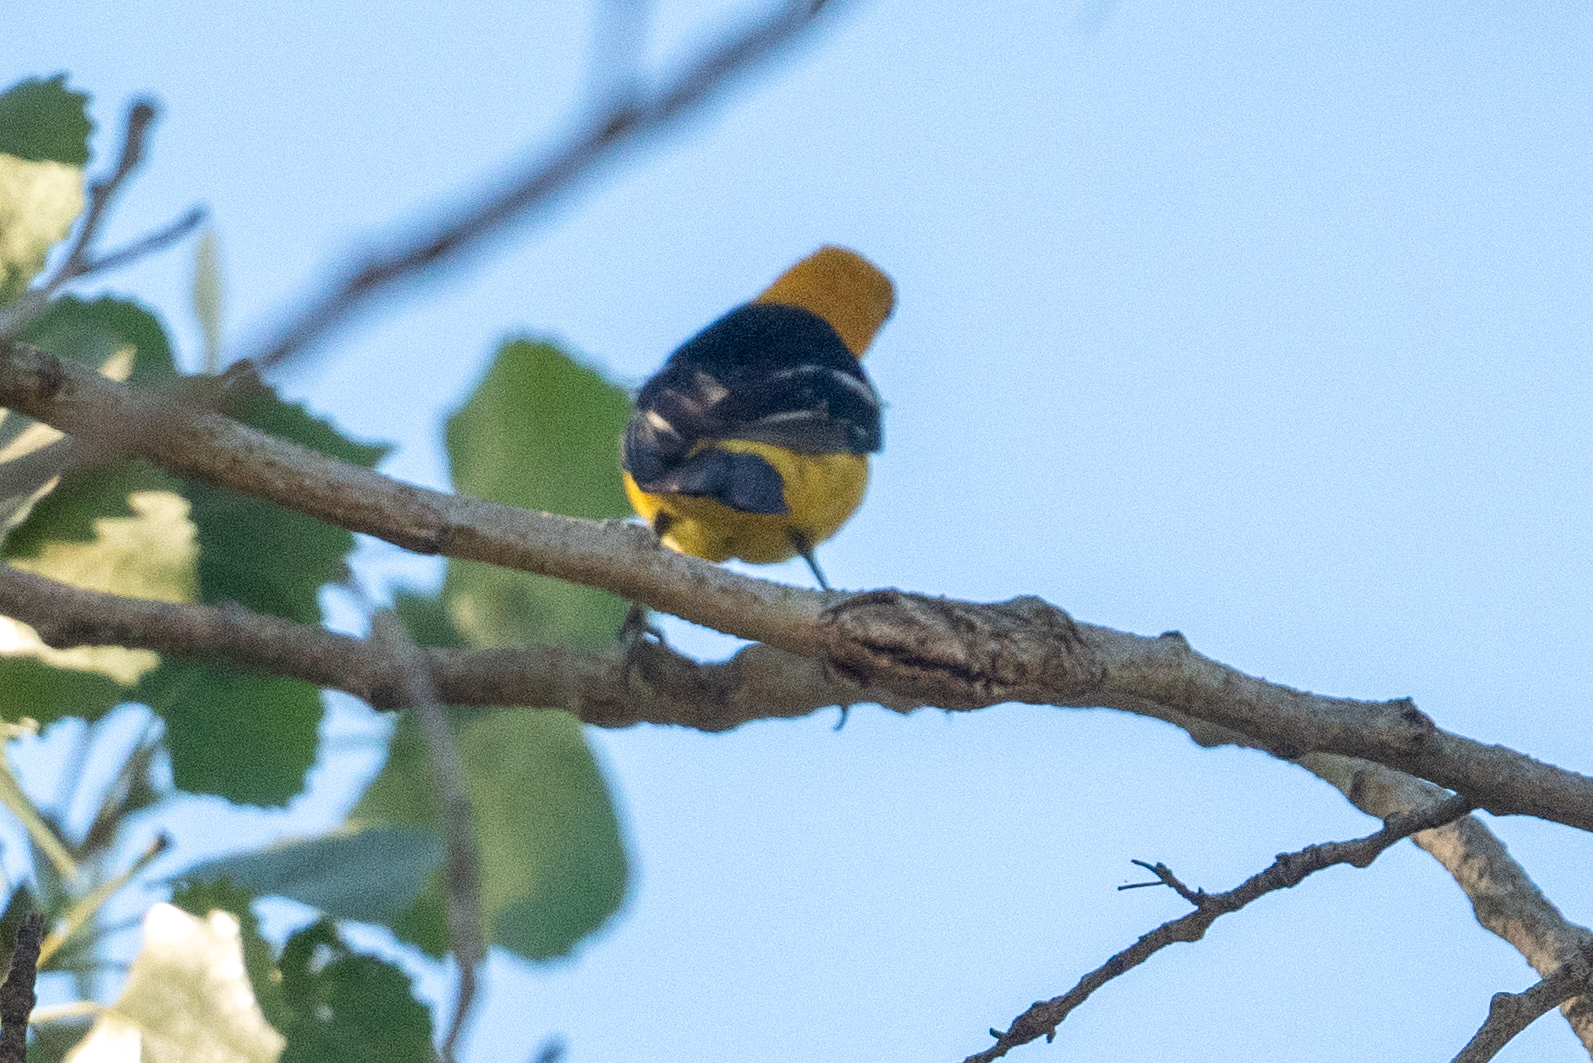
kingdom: Animalia
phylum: Chordata
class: Aves
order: Passeriformes
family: Icteridae
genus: Icterus
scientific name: Icterus cucullatus
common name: Hooded oriole
